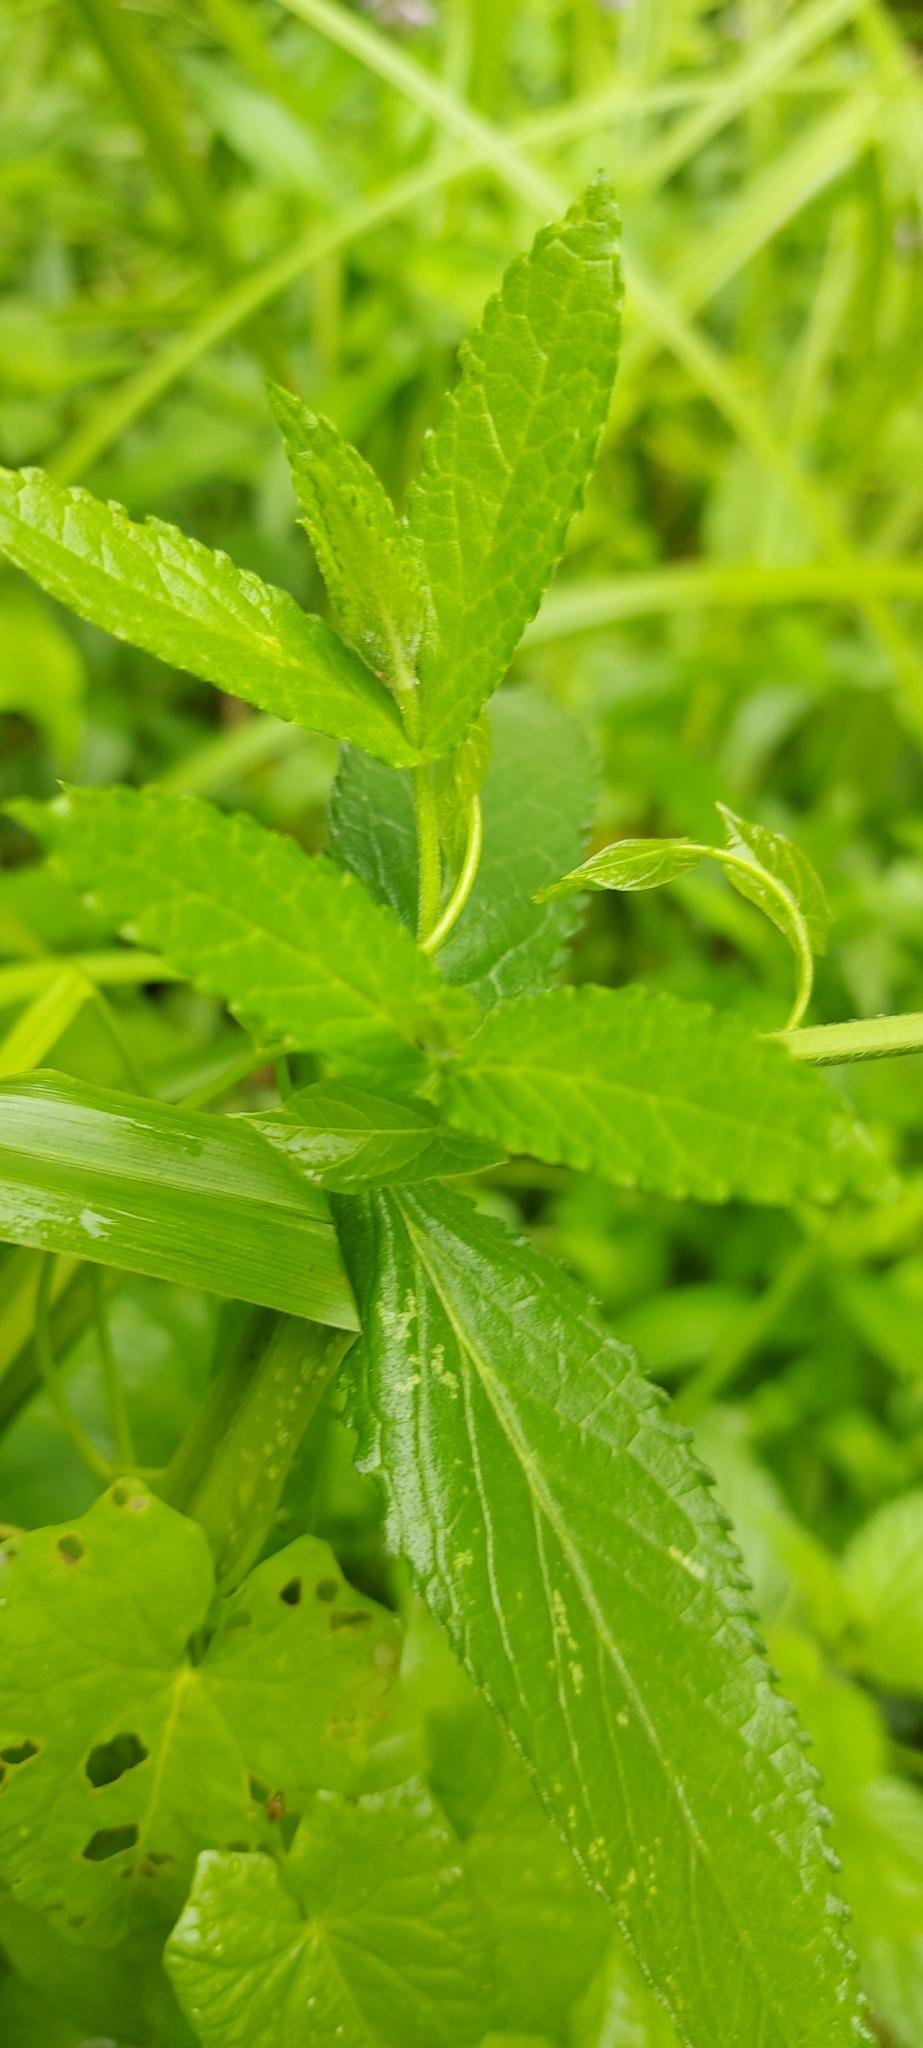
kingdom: Plantae
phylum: Tracheophyta
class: Magnoliopsida
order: Lamiales
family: Lamiaceae
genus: Stachys
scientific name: Stachys palustris
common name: Marsh woundwort
